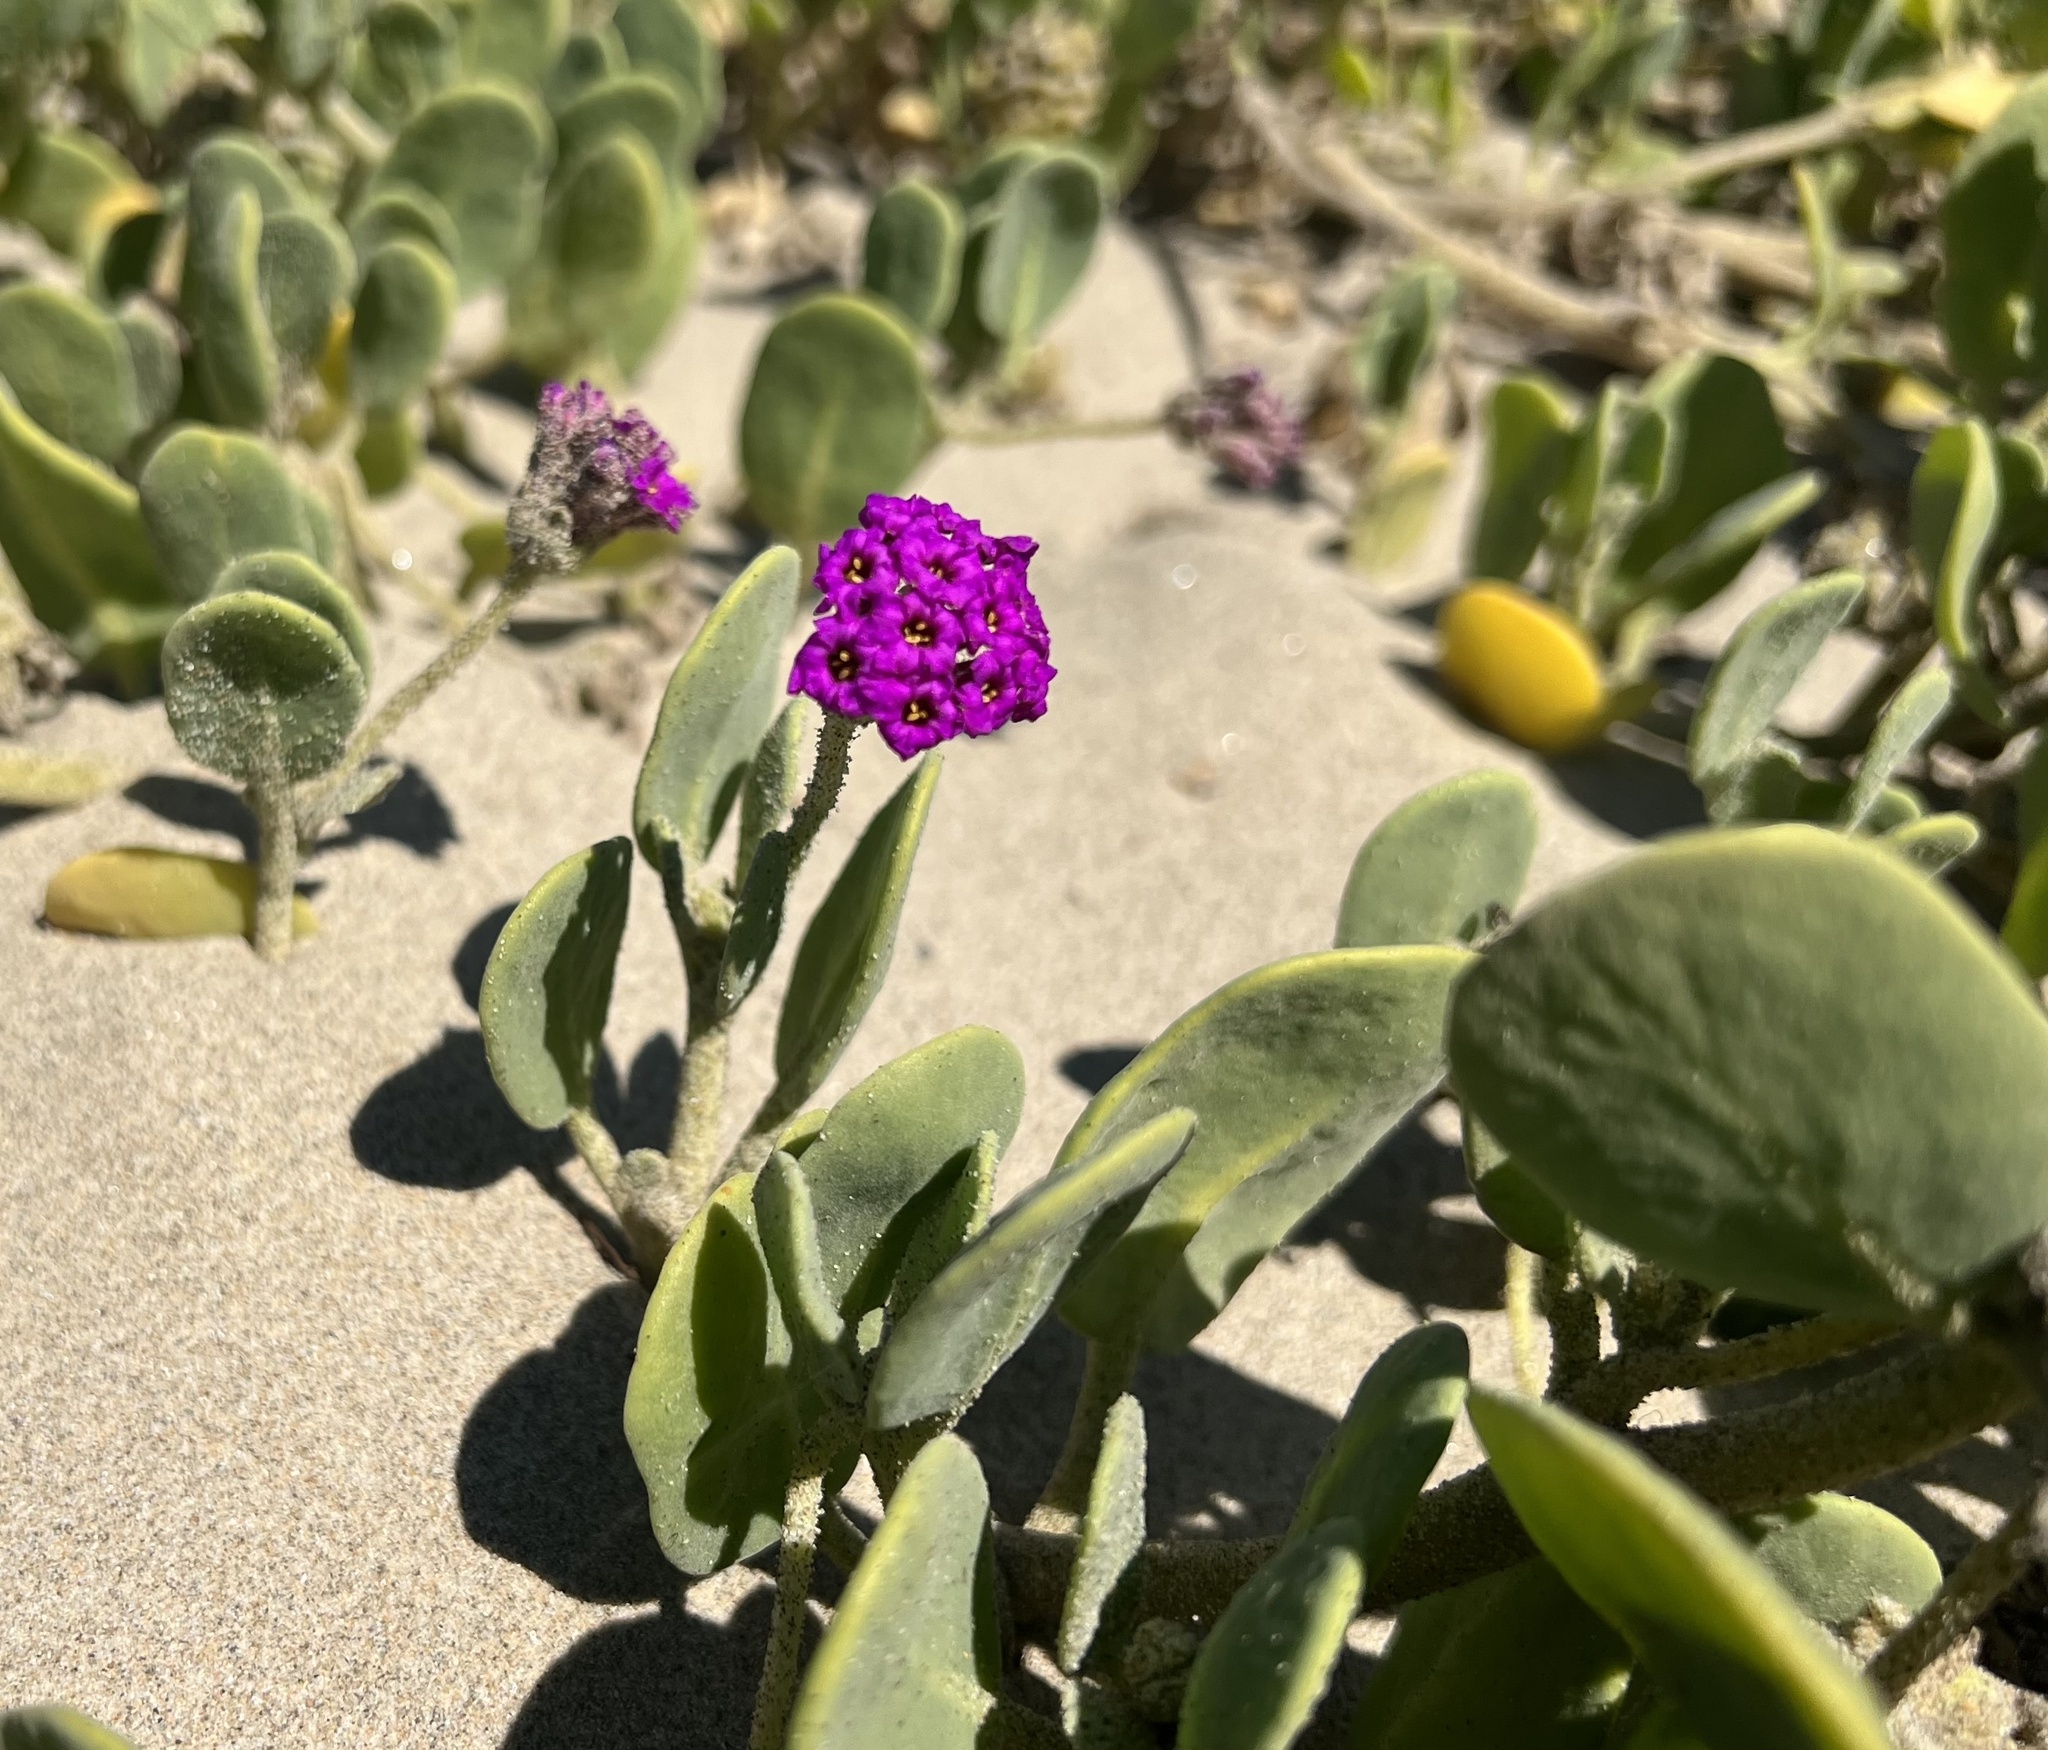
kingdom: Plantae
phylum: Tracheophyta
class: Magnoliopsida
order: Caryophyllales
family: Nyctaginaceae
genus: Abronia
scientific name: Abronia maritima
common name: Red sand-verbena
